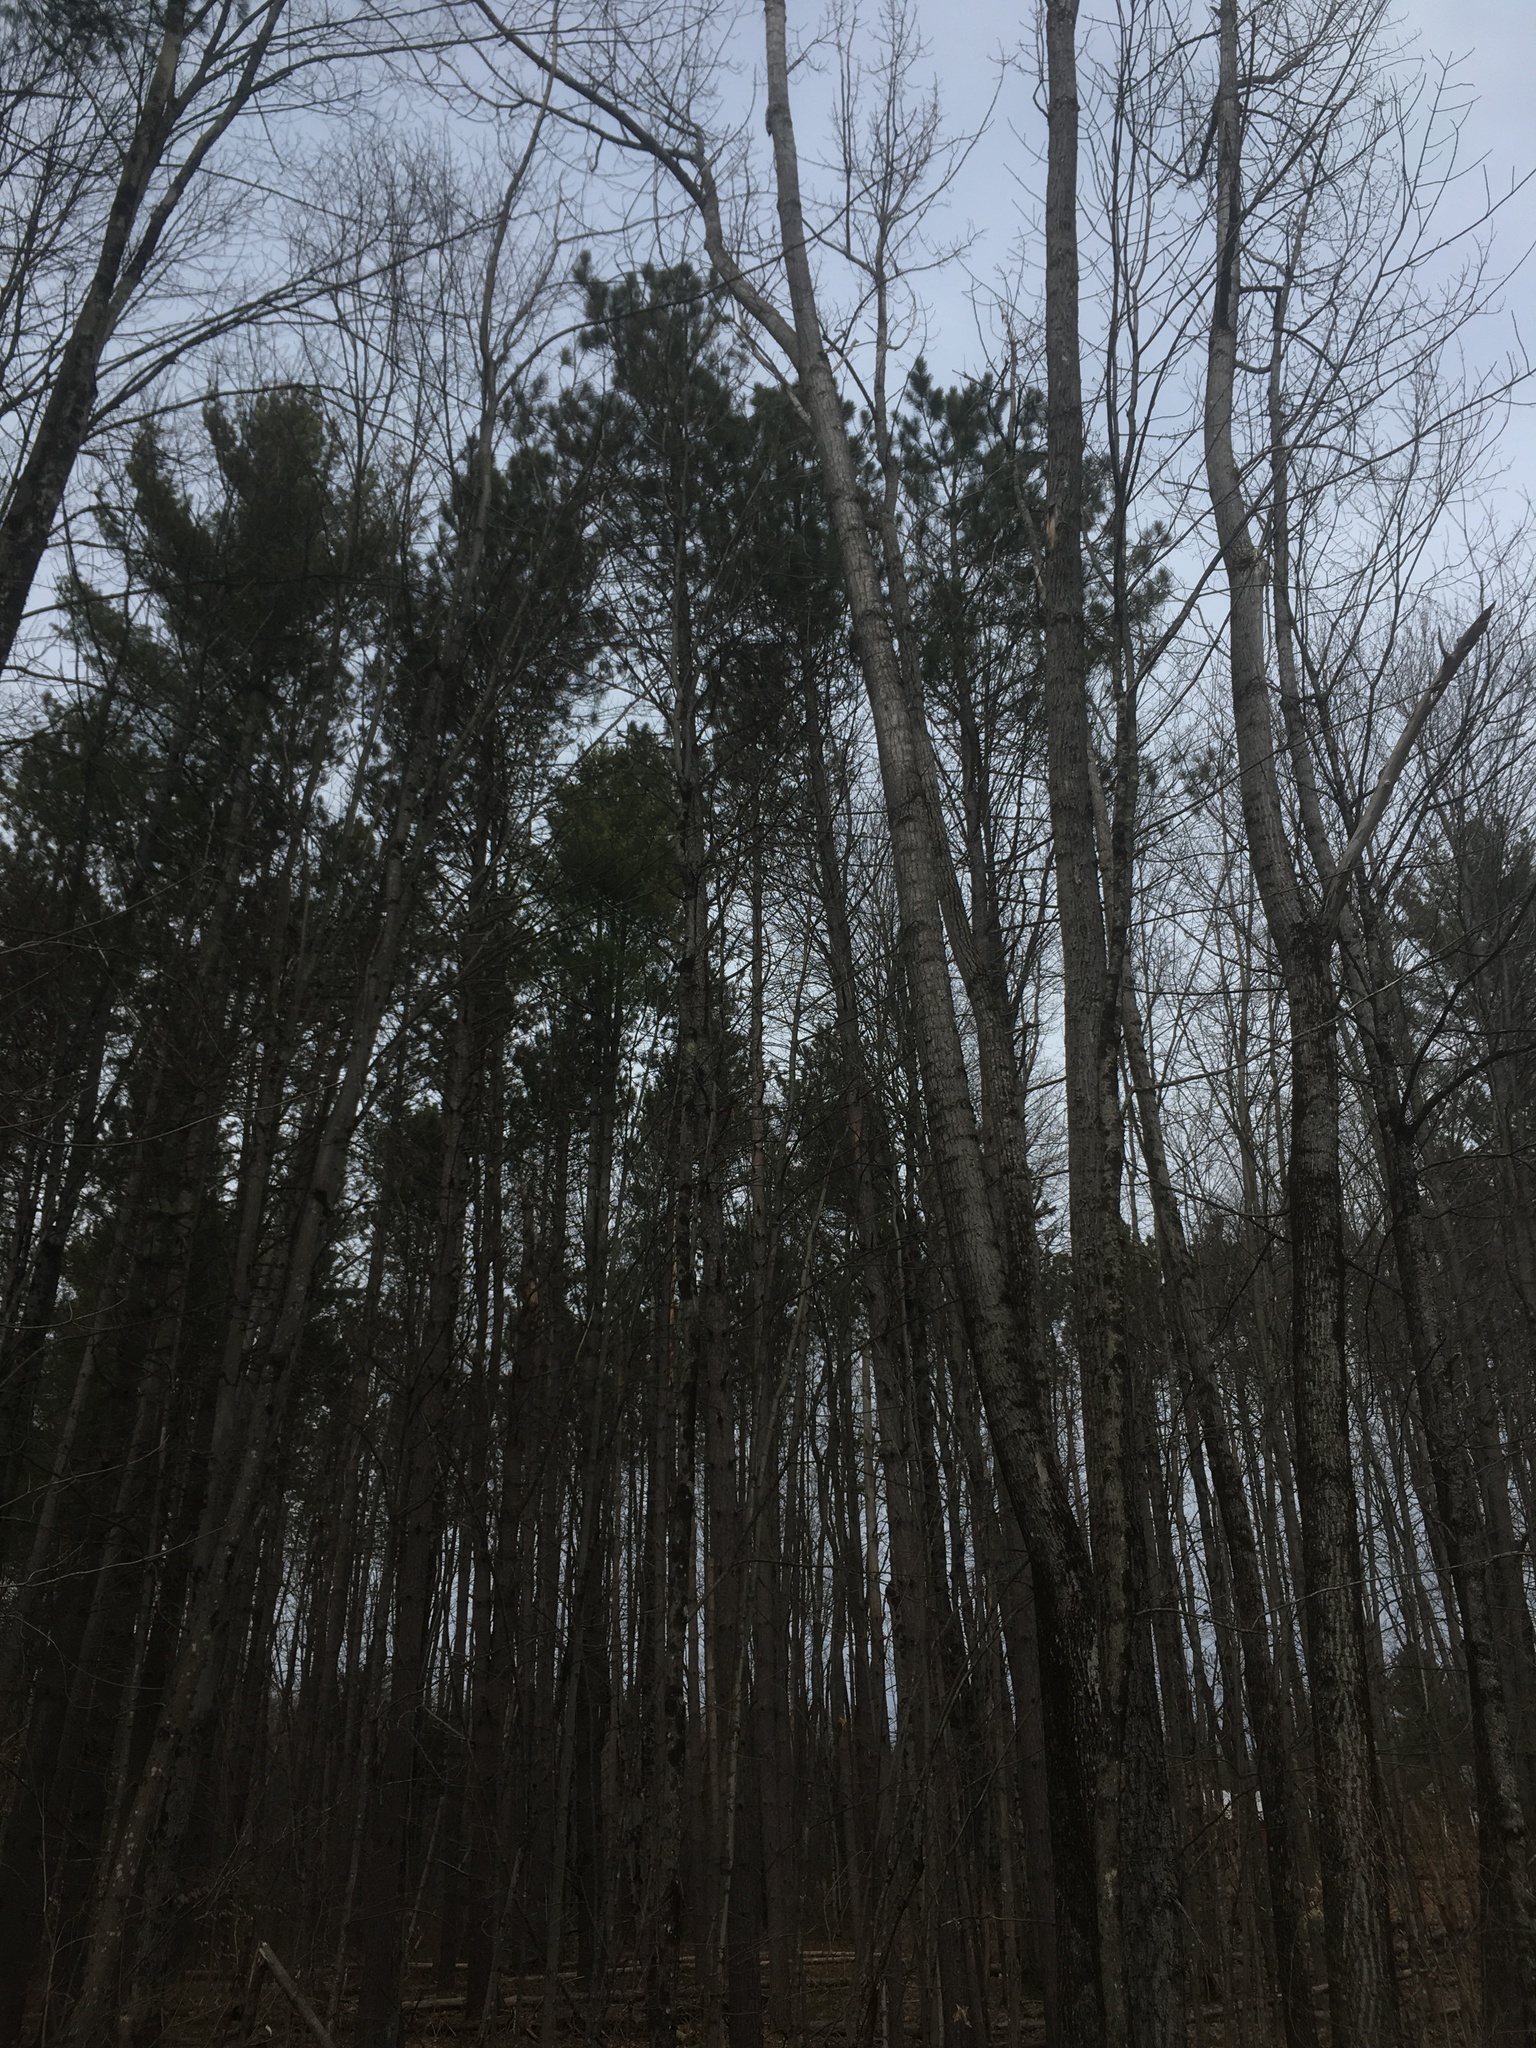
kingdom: Plantae
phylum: Tracheophyta
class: Pinopsida
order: Pinales
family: Pinaceae
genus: Pinus
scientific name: Pinus resinosa
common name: Norway pine
